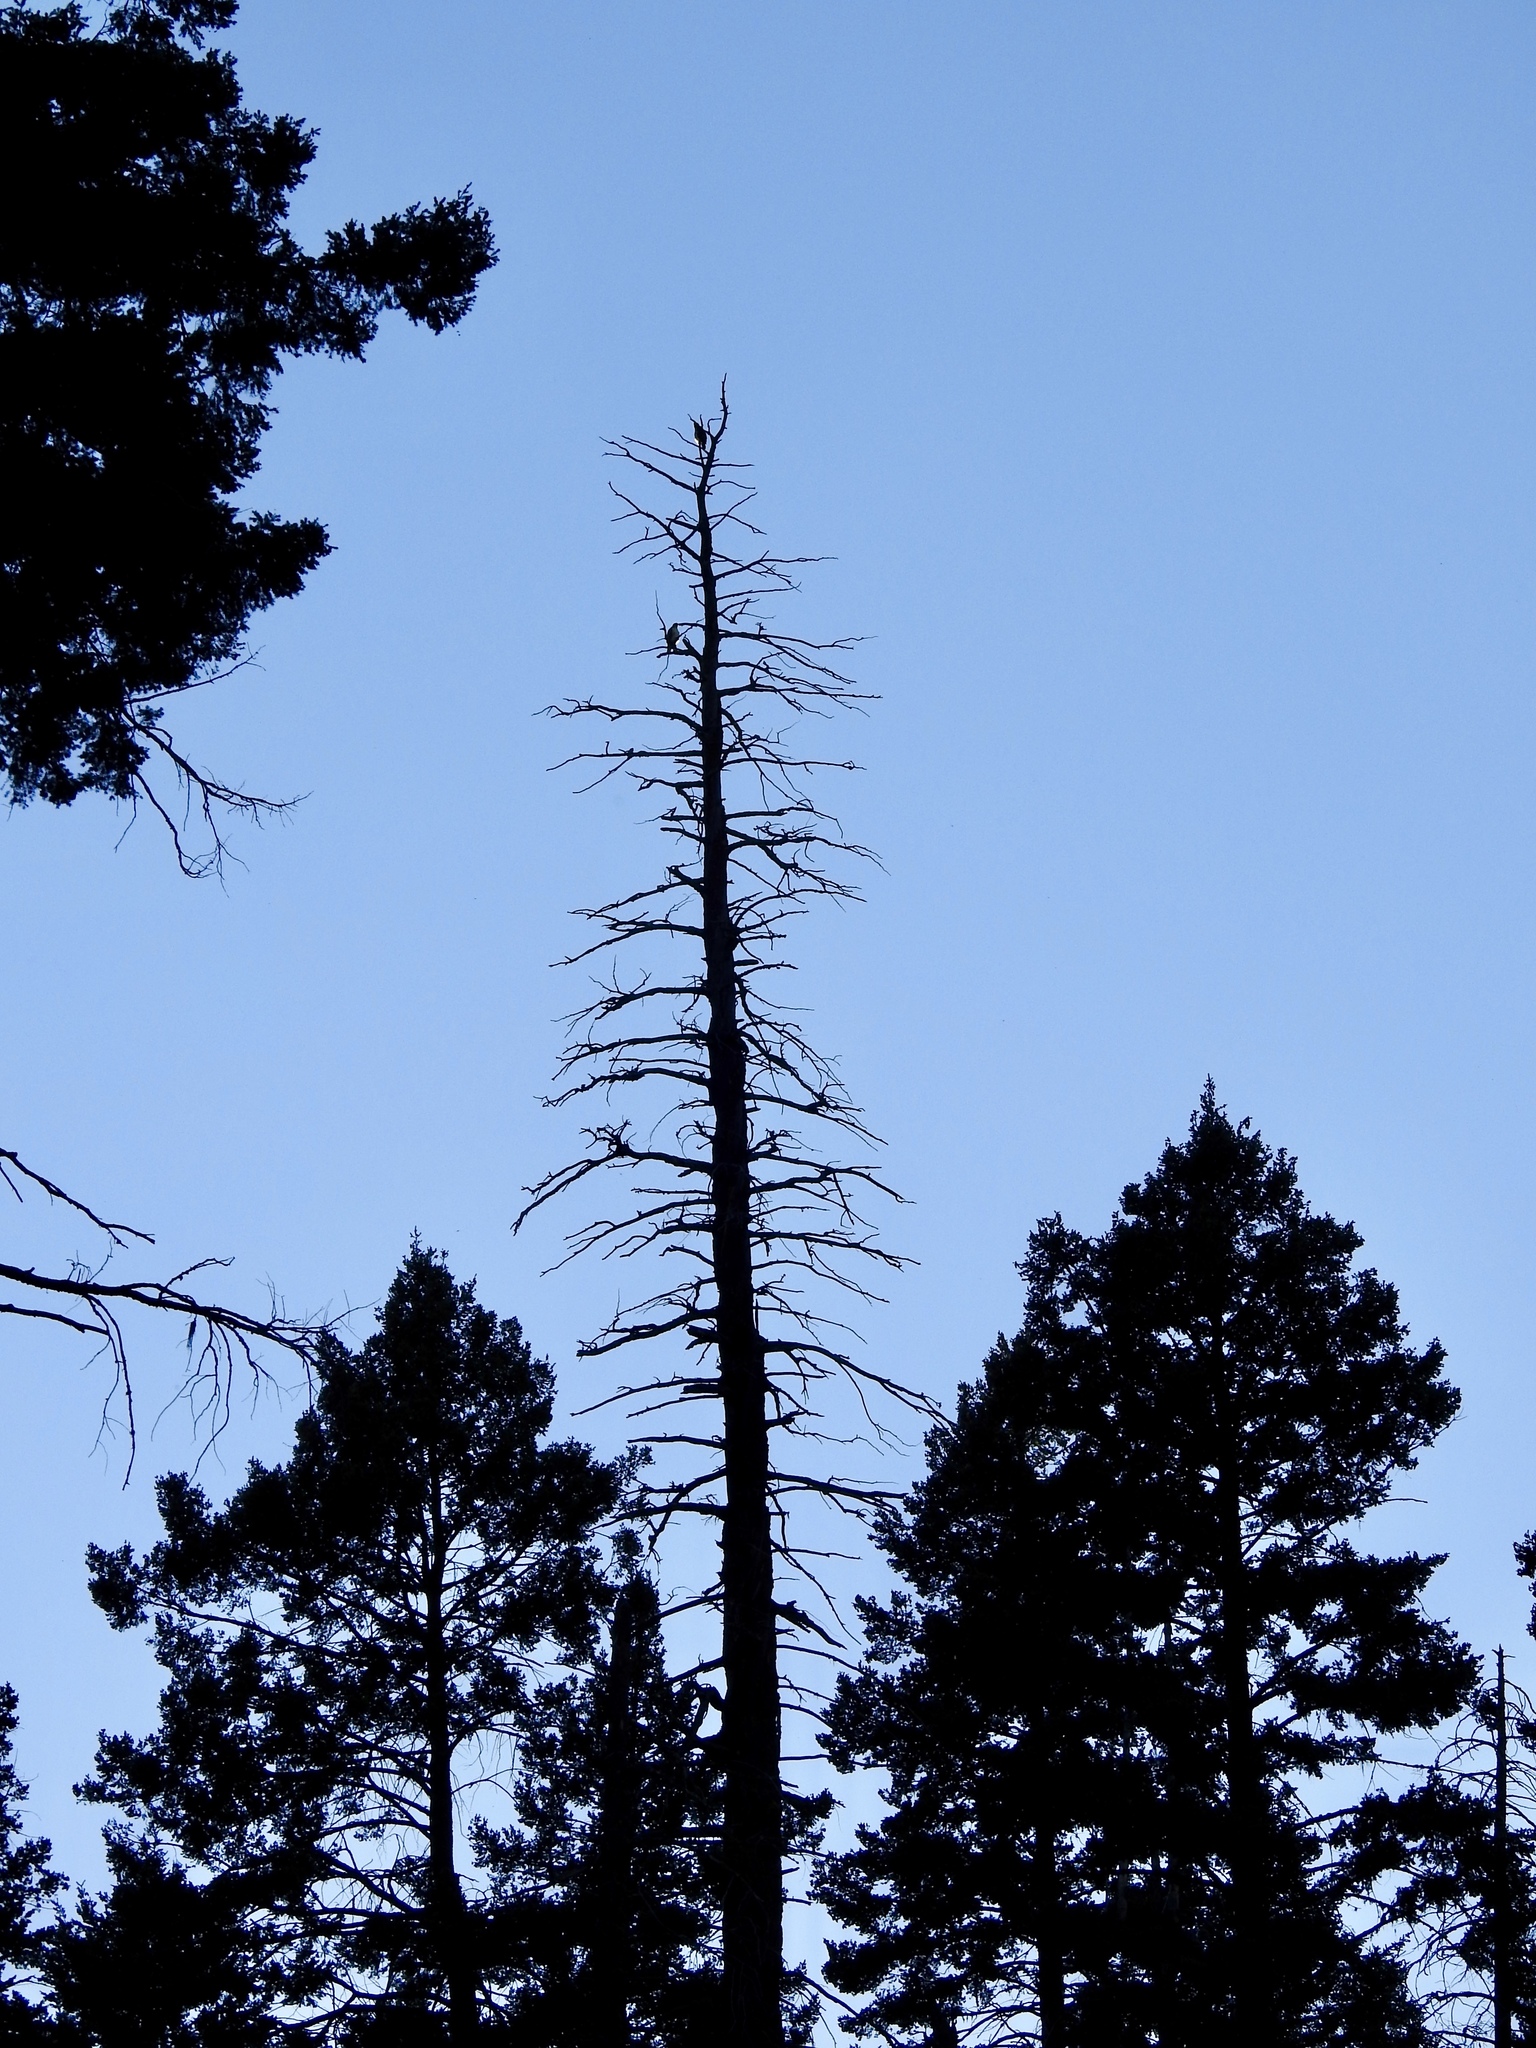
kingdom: Animalia
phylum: Chordata
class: Aves
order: Accipitriformes
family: Accipitridae
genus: Buteo
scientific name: Buteo jamaicensis
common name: Red-tailed hawk
